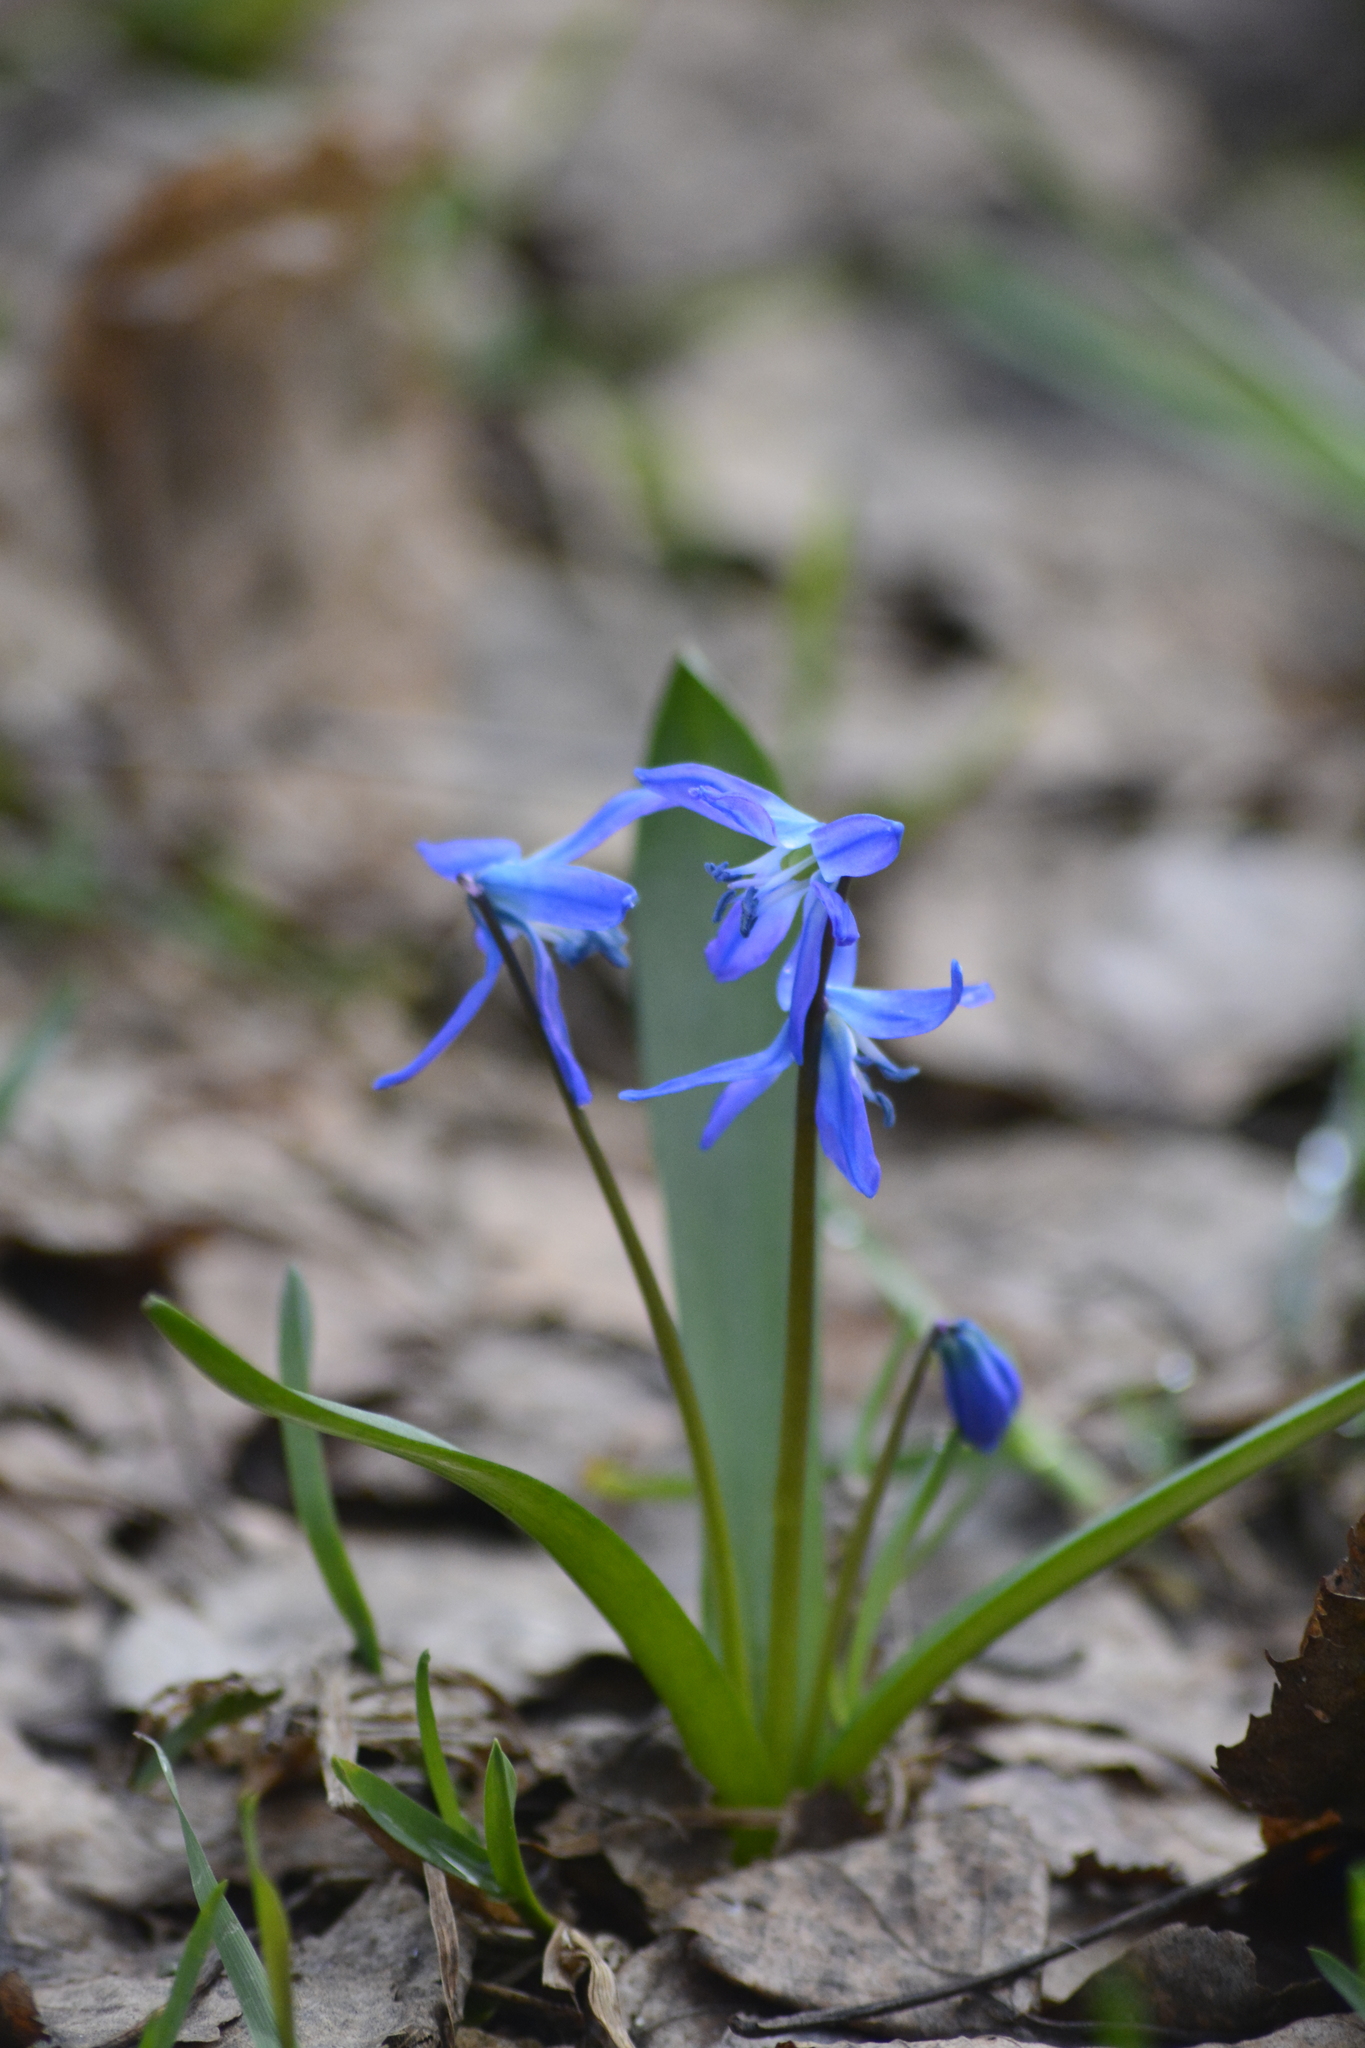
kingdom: Plantae
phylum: Tracheophyta
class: Liliopsida
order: Asparagales
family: Asparagaceae
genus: Scilla
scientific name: Scilla siberica
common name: Siberian squill
